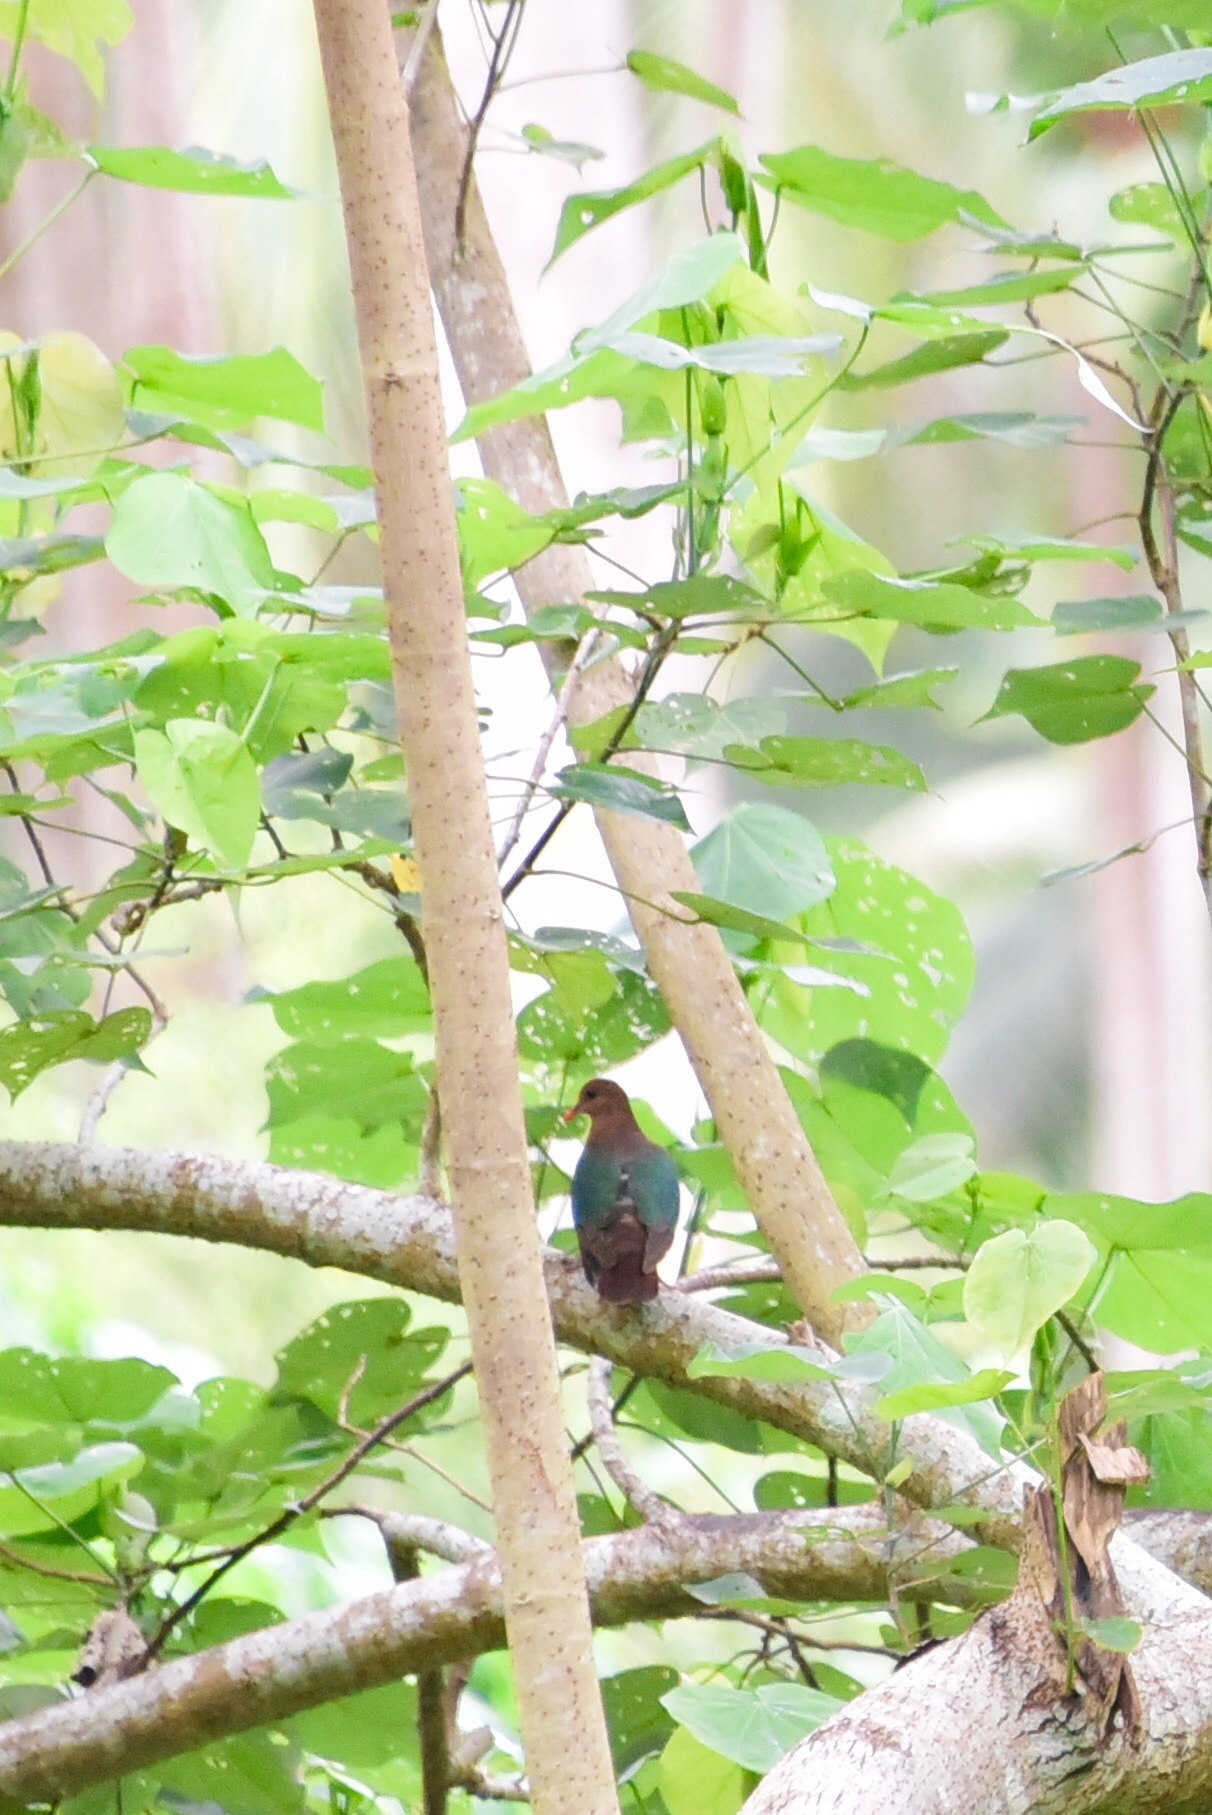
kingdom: Animalia
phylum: Chordata
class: Aves
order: Columbiformes
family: Columbidae
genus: Chalcophaps
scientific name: Chalcophaps longirostris
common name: Pacific emerald dove
